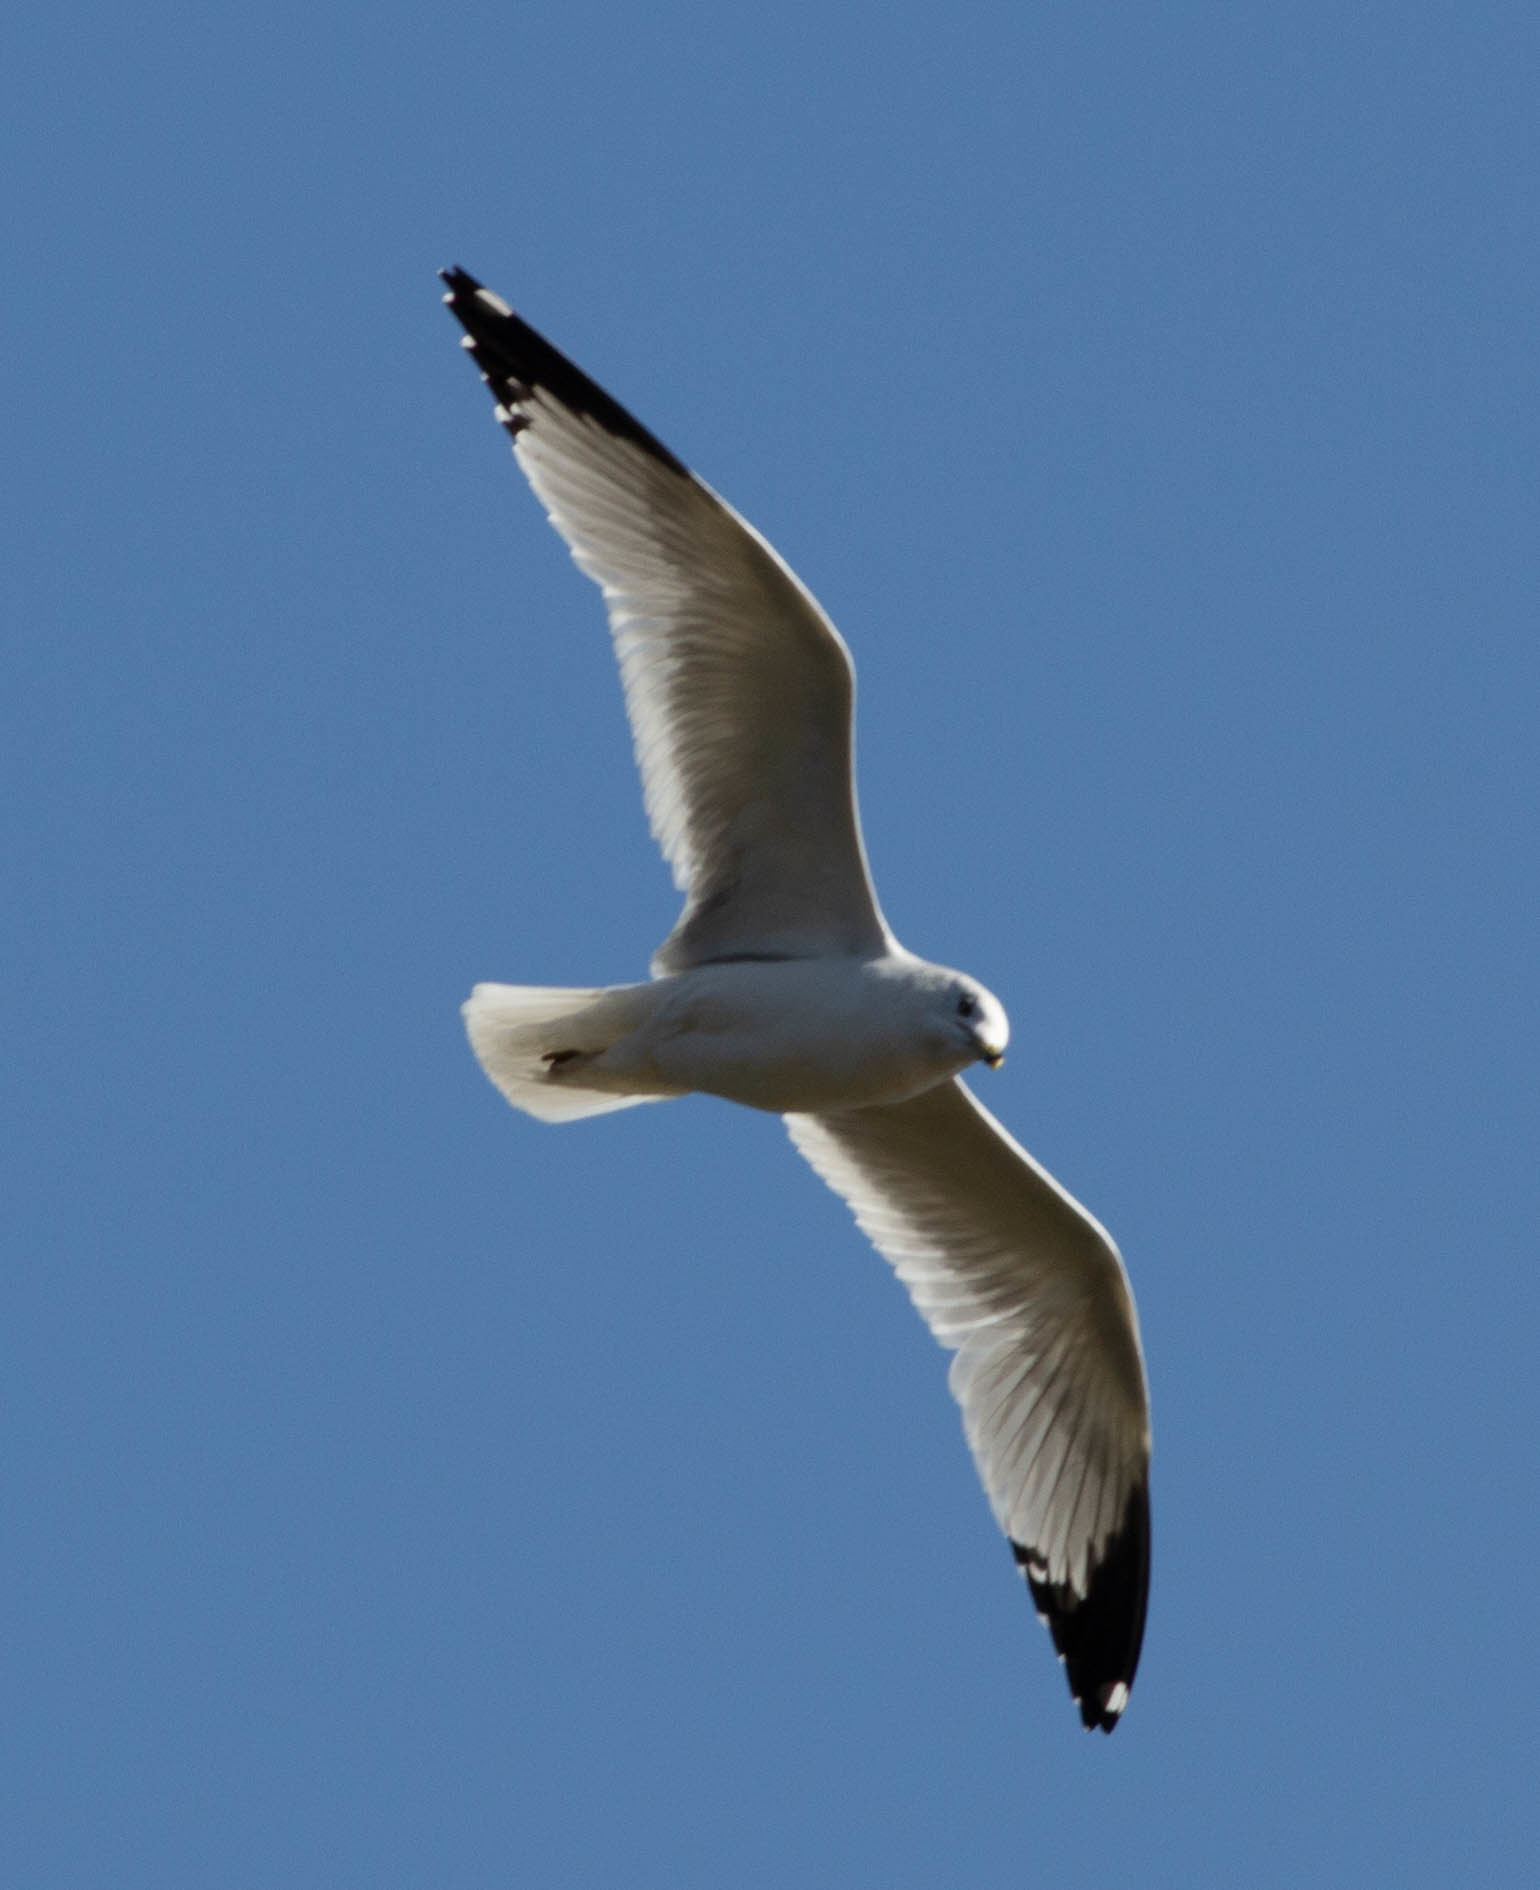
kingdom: Animalia
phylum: Chordata
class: Aves
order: Charadriiformes
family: Laridae
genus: Larus
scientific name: Larus delawarensis
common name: Ring-billed gull
